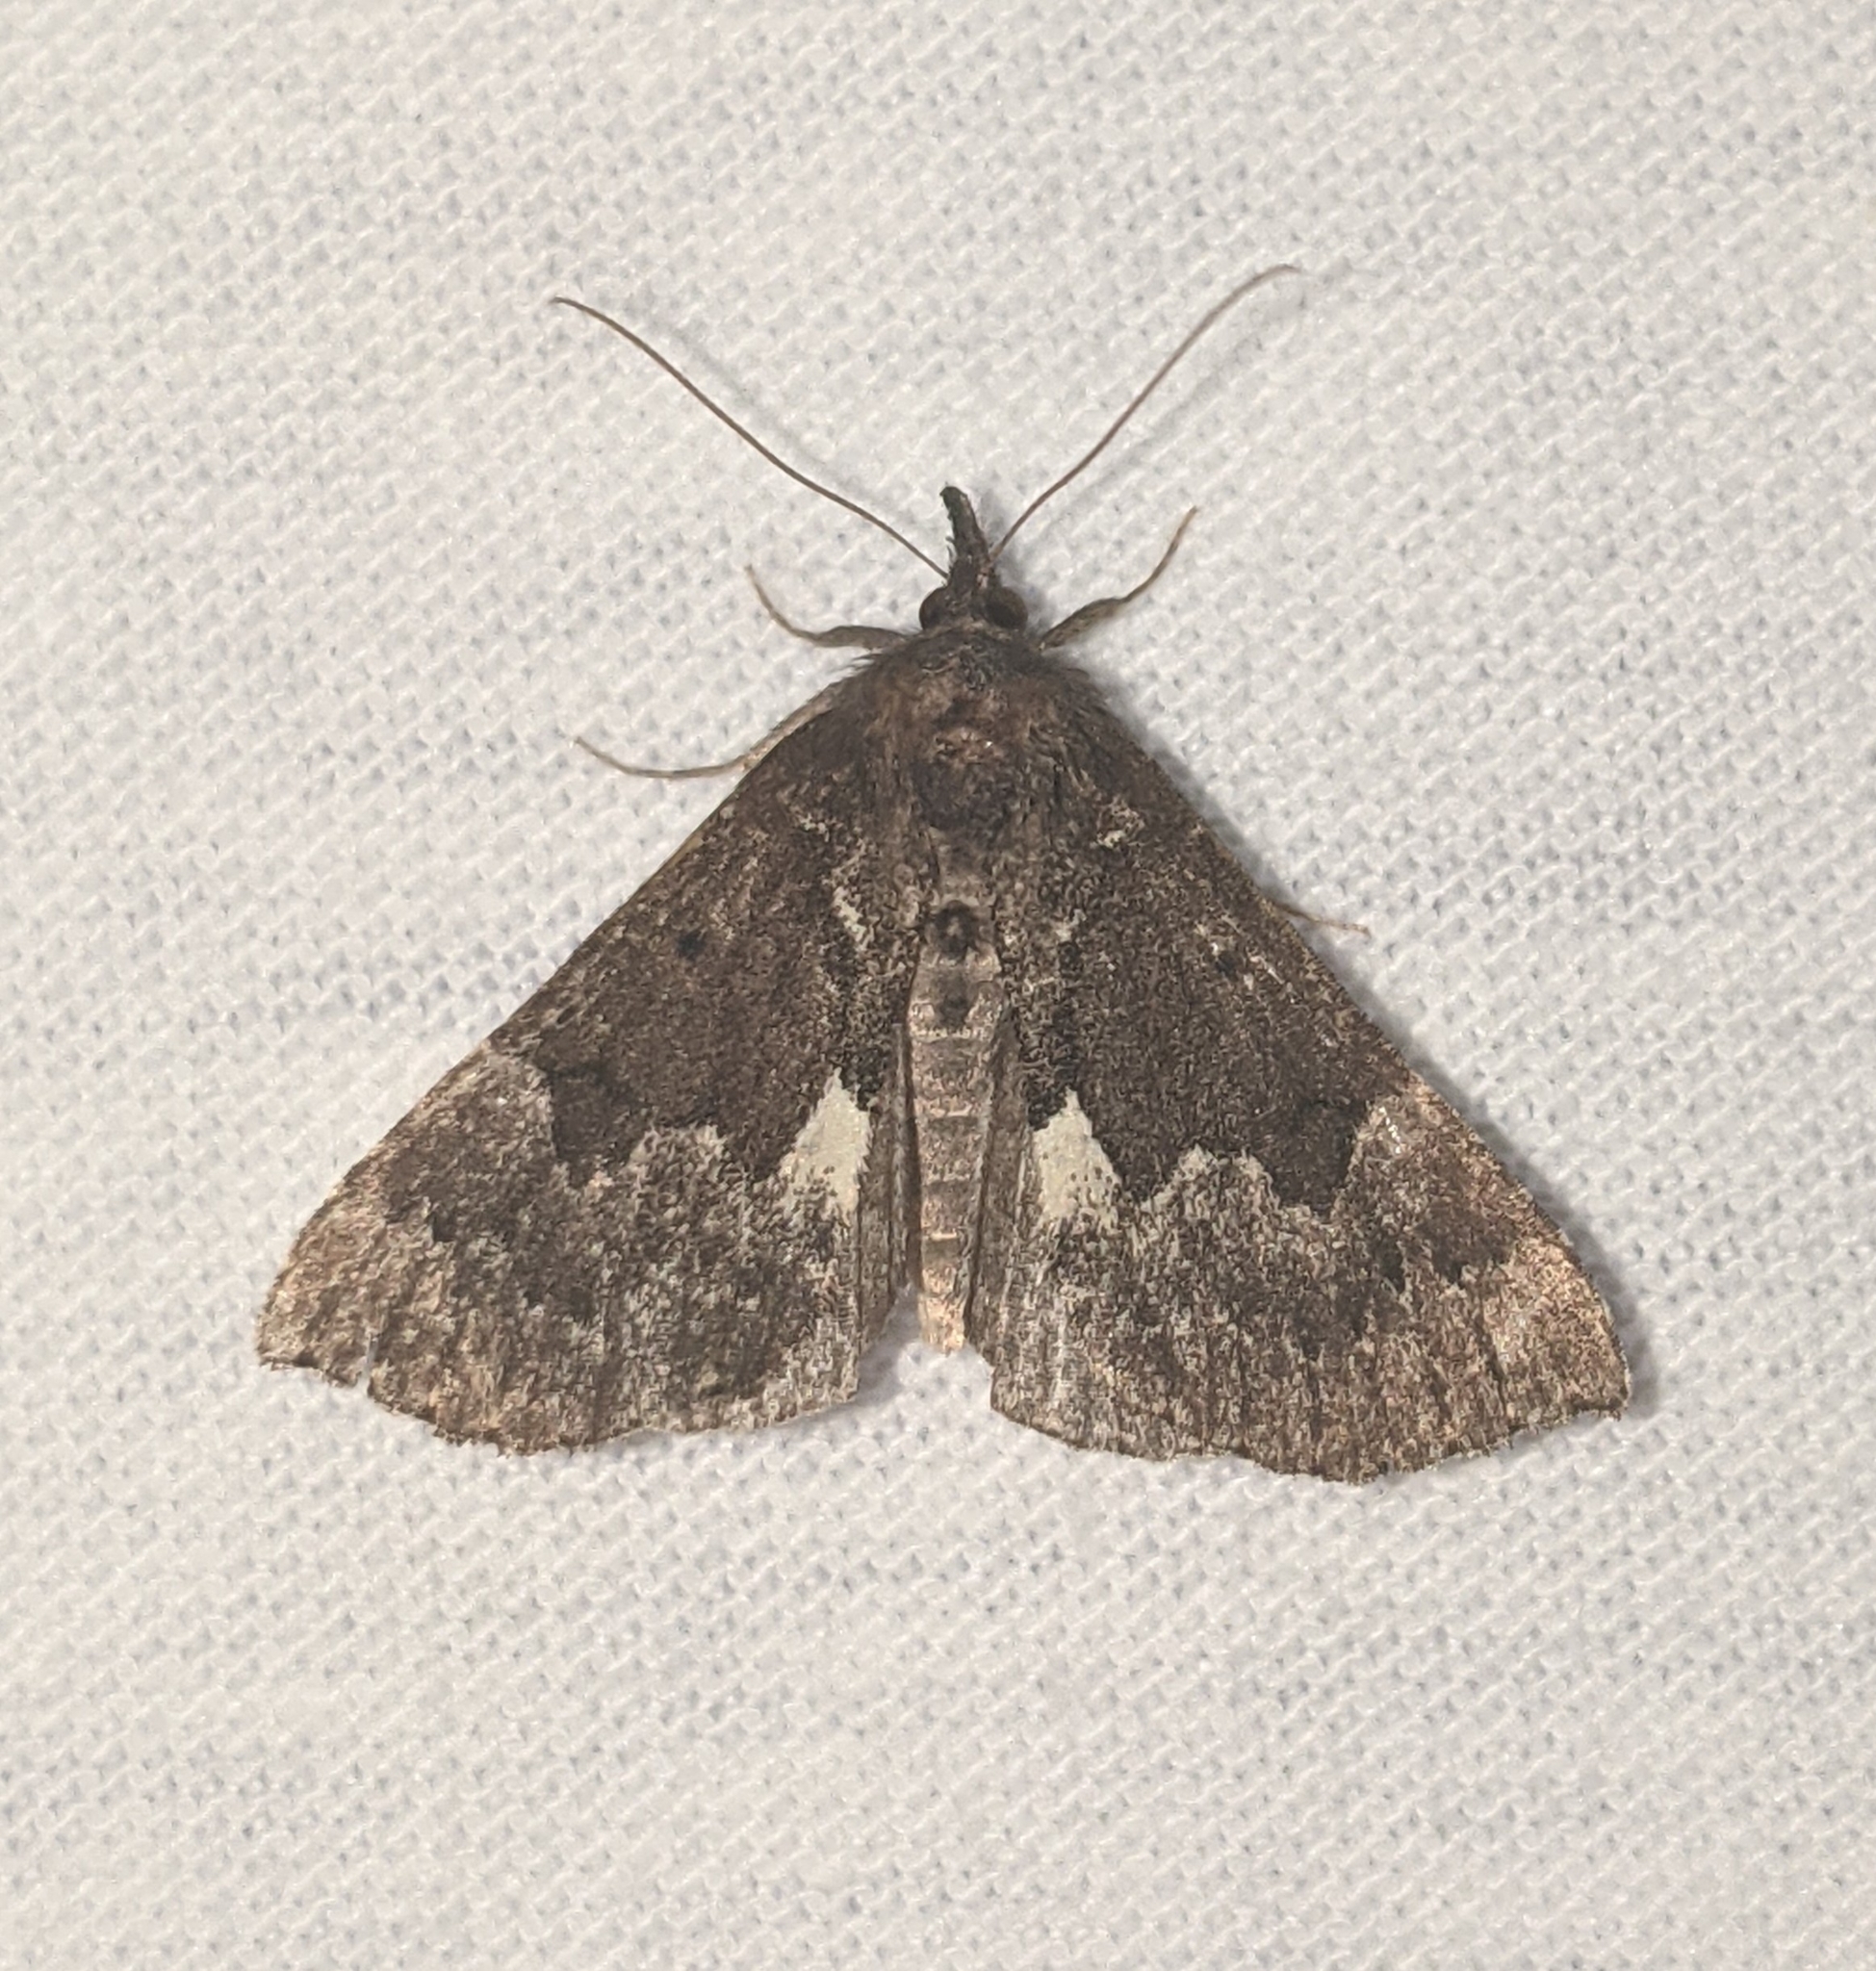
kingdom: Animalia
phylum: Arthropoda
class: Insecta
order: Lepidoptera
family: Erebidae
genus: Hypena
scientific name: Hypena bijugalis
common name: Dimorphic bomolocha moth
